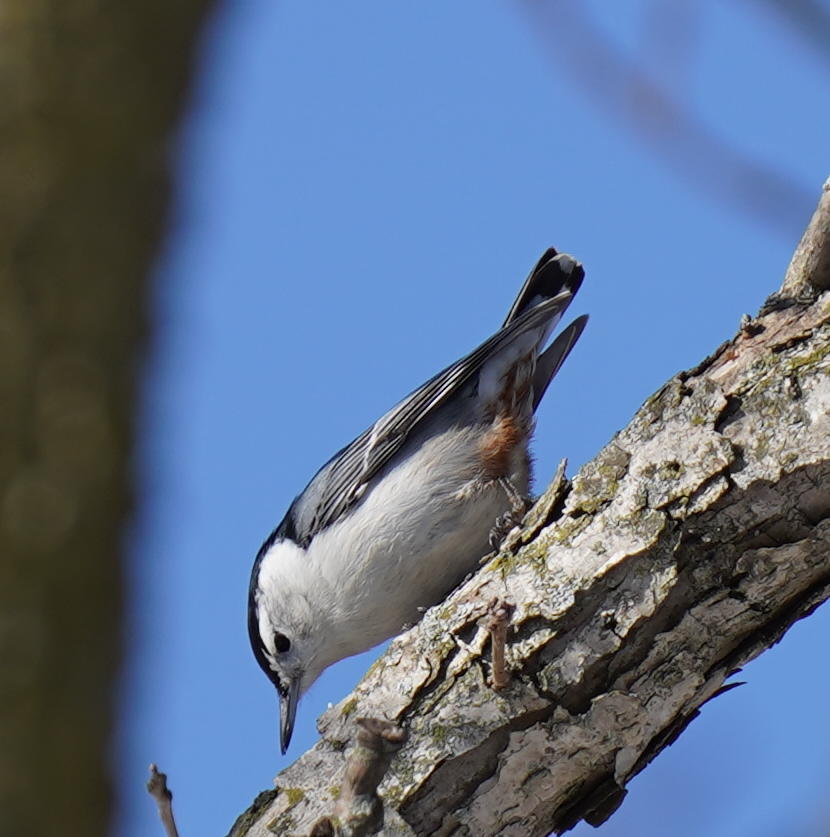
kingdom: Animalia
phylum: Chordata
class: Aves
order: Passeriformes
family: Sittidae
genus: Sitta
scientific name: Sitta carolinensis
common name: White-breasted nuthatch
